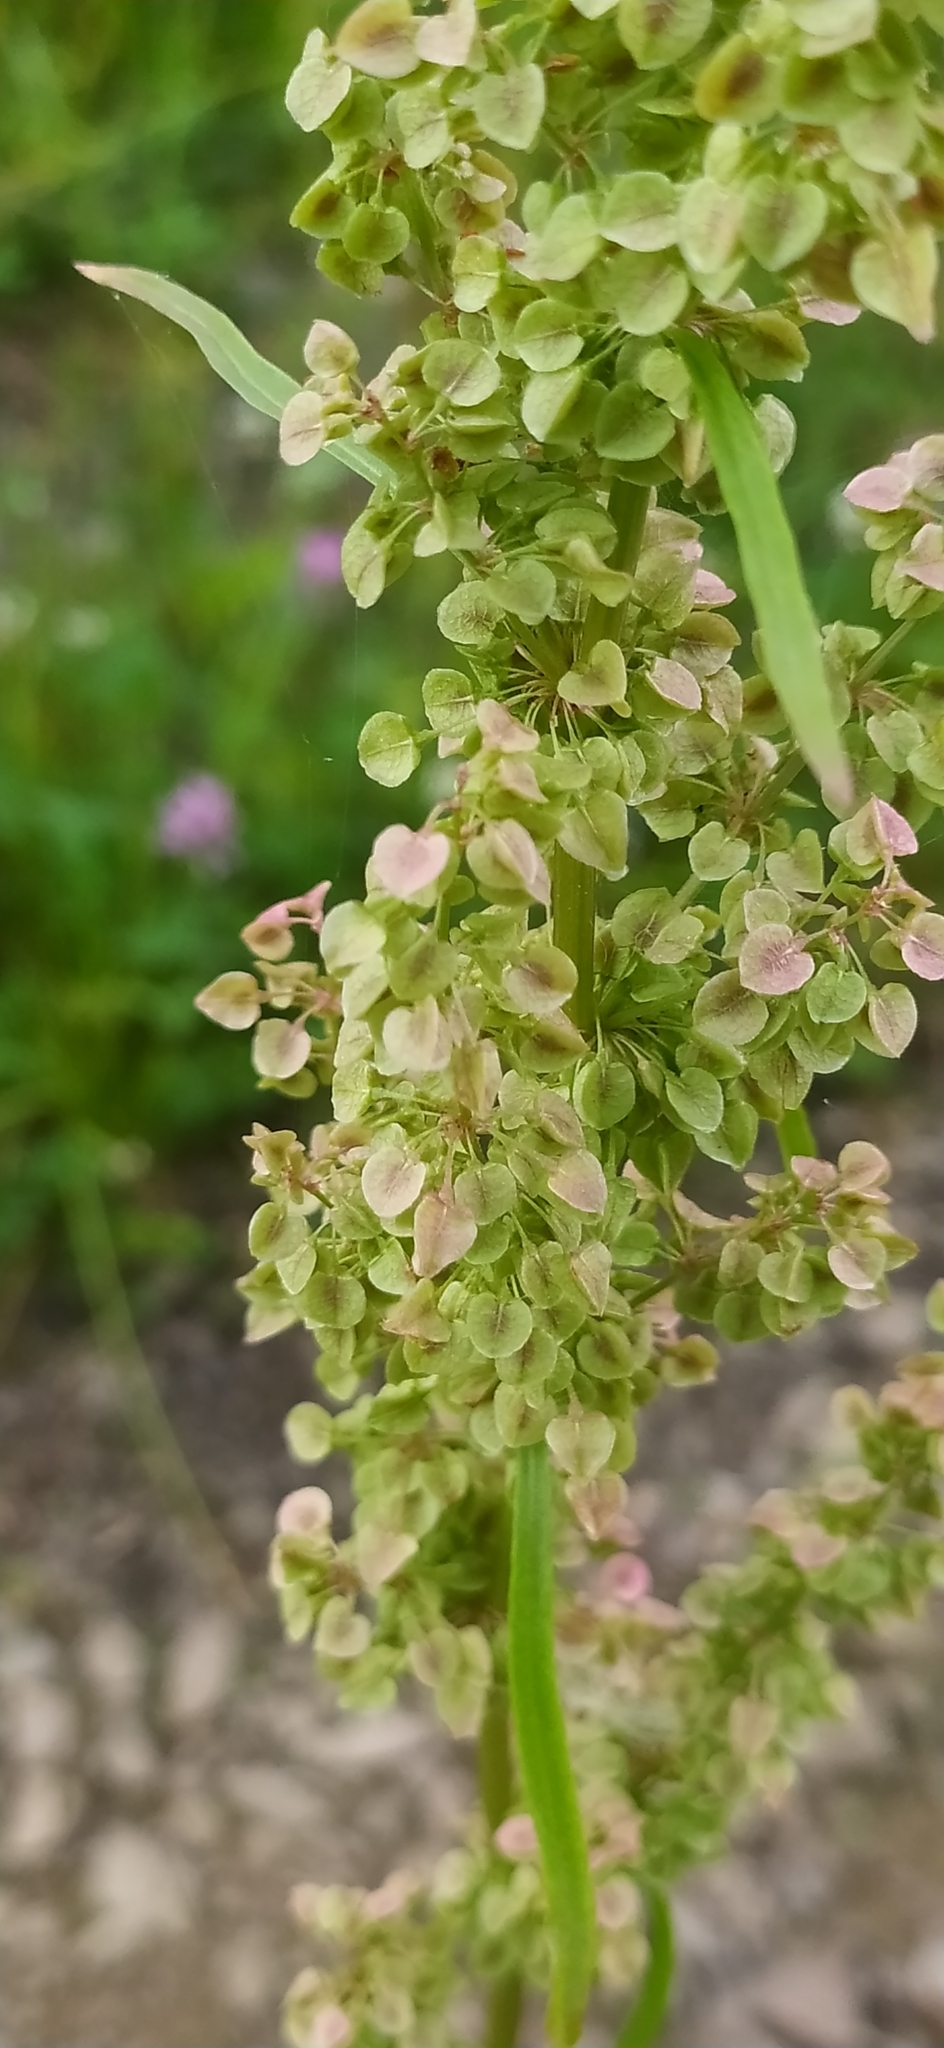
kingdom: Plantae
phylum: Tracheophyta
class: Magnoliopsida
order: Caryophyllales
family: Polygonaceae
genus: Rumex
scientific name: Rumex pseudonatronatus
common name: Field dock
